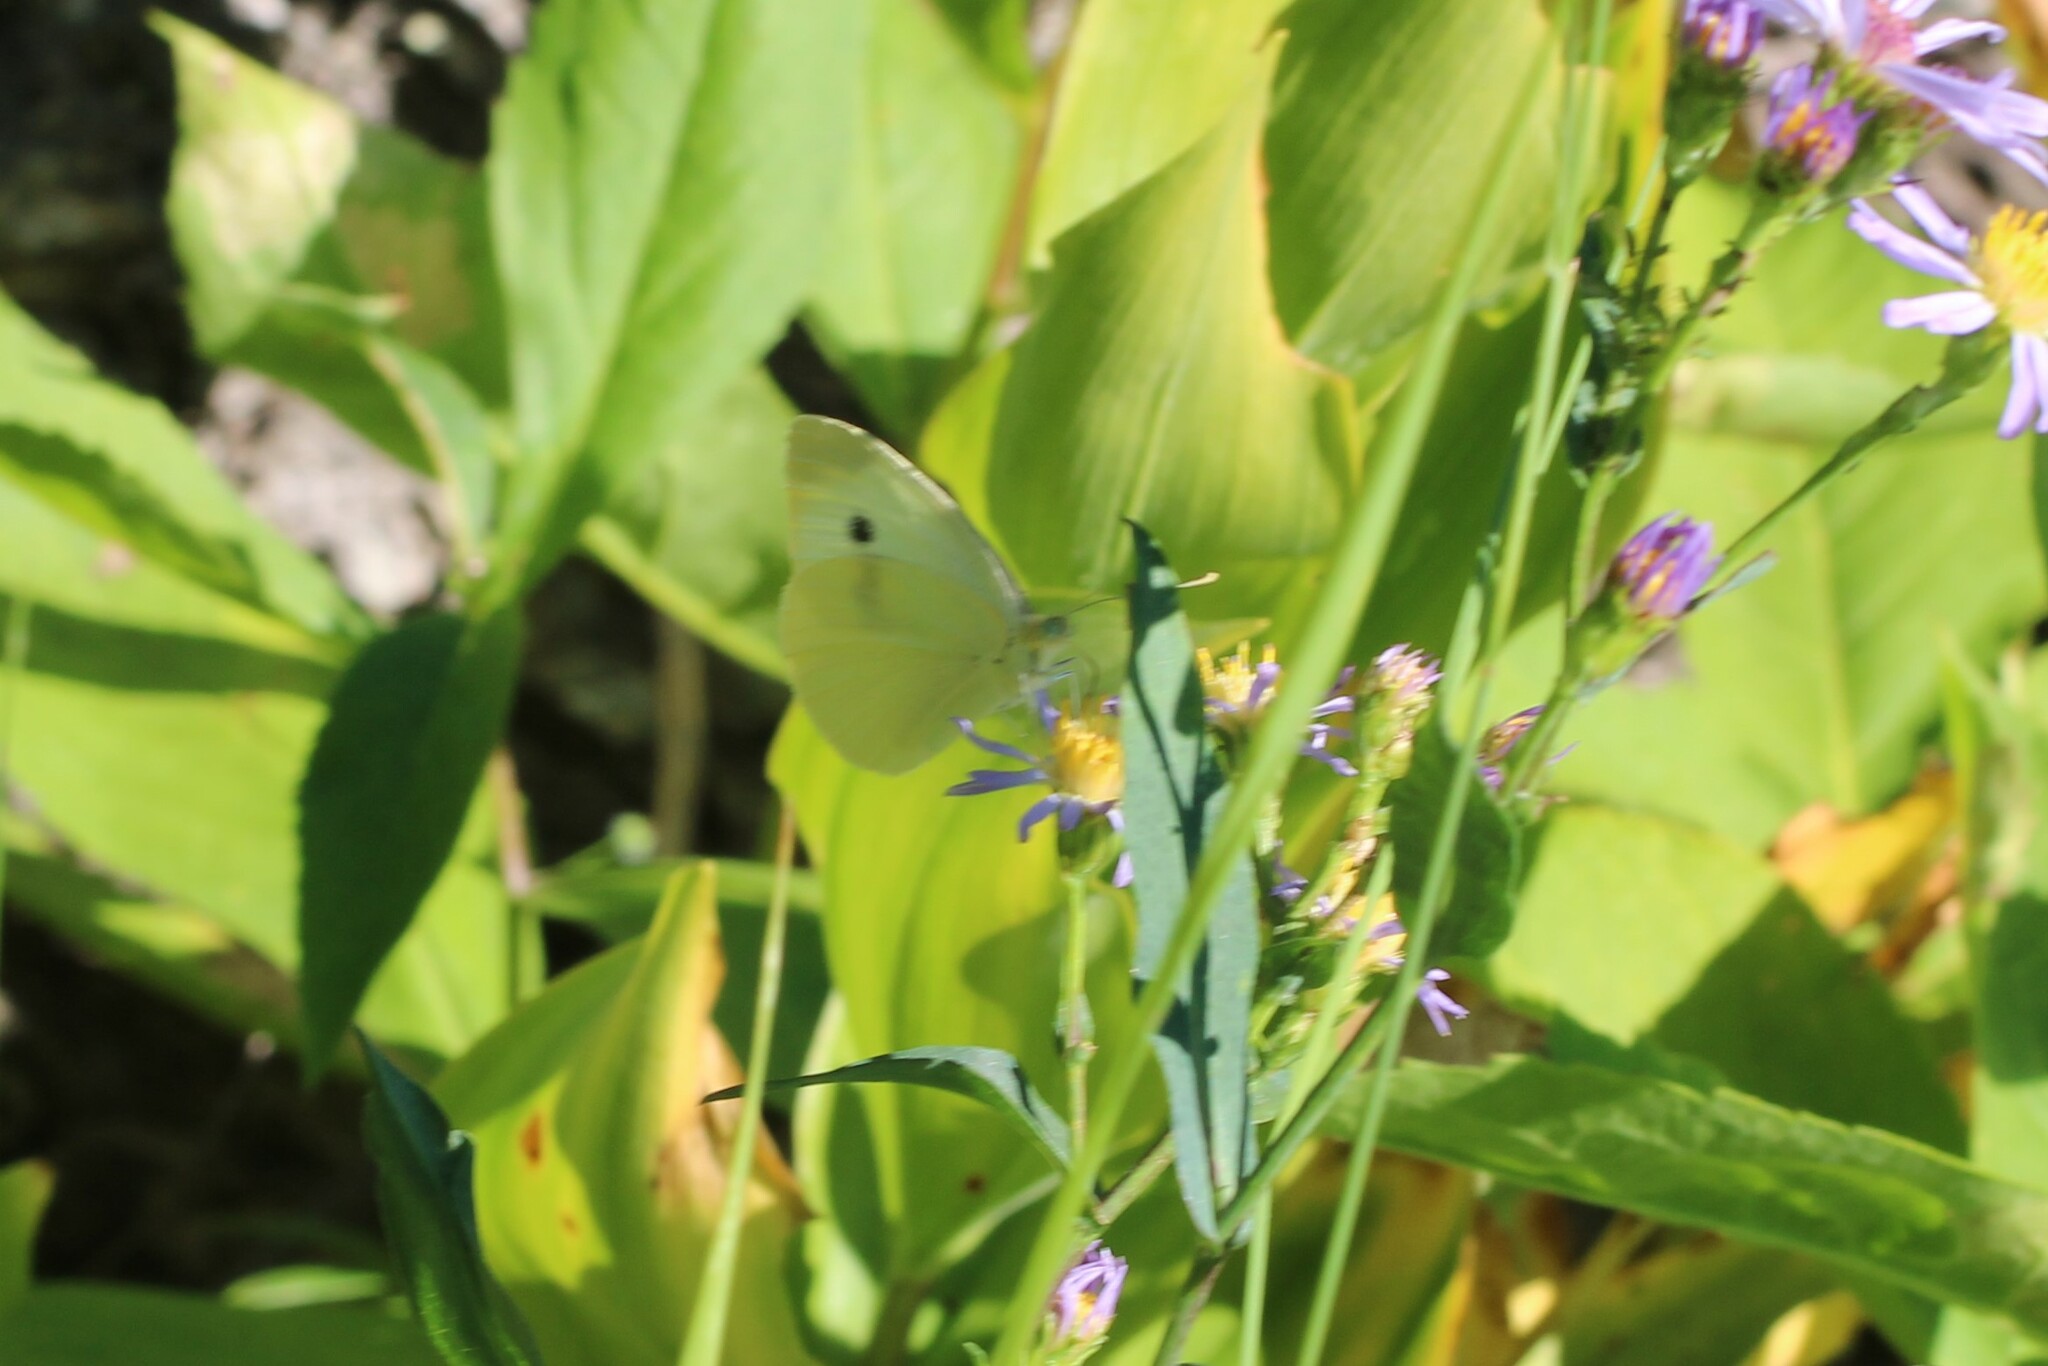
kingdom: Animalia
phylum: Arthropoda
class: Insecta
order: Lepidoptera
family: Pieridae
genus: Pieris
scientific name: Pieris rapae
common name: Small white
